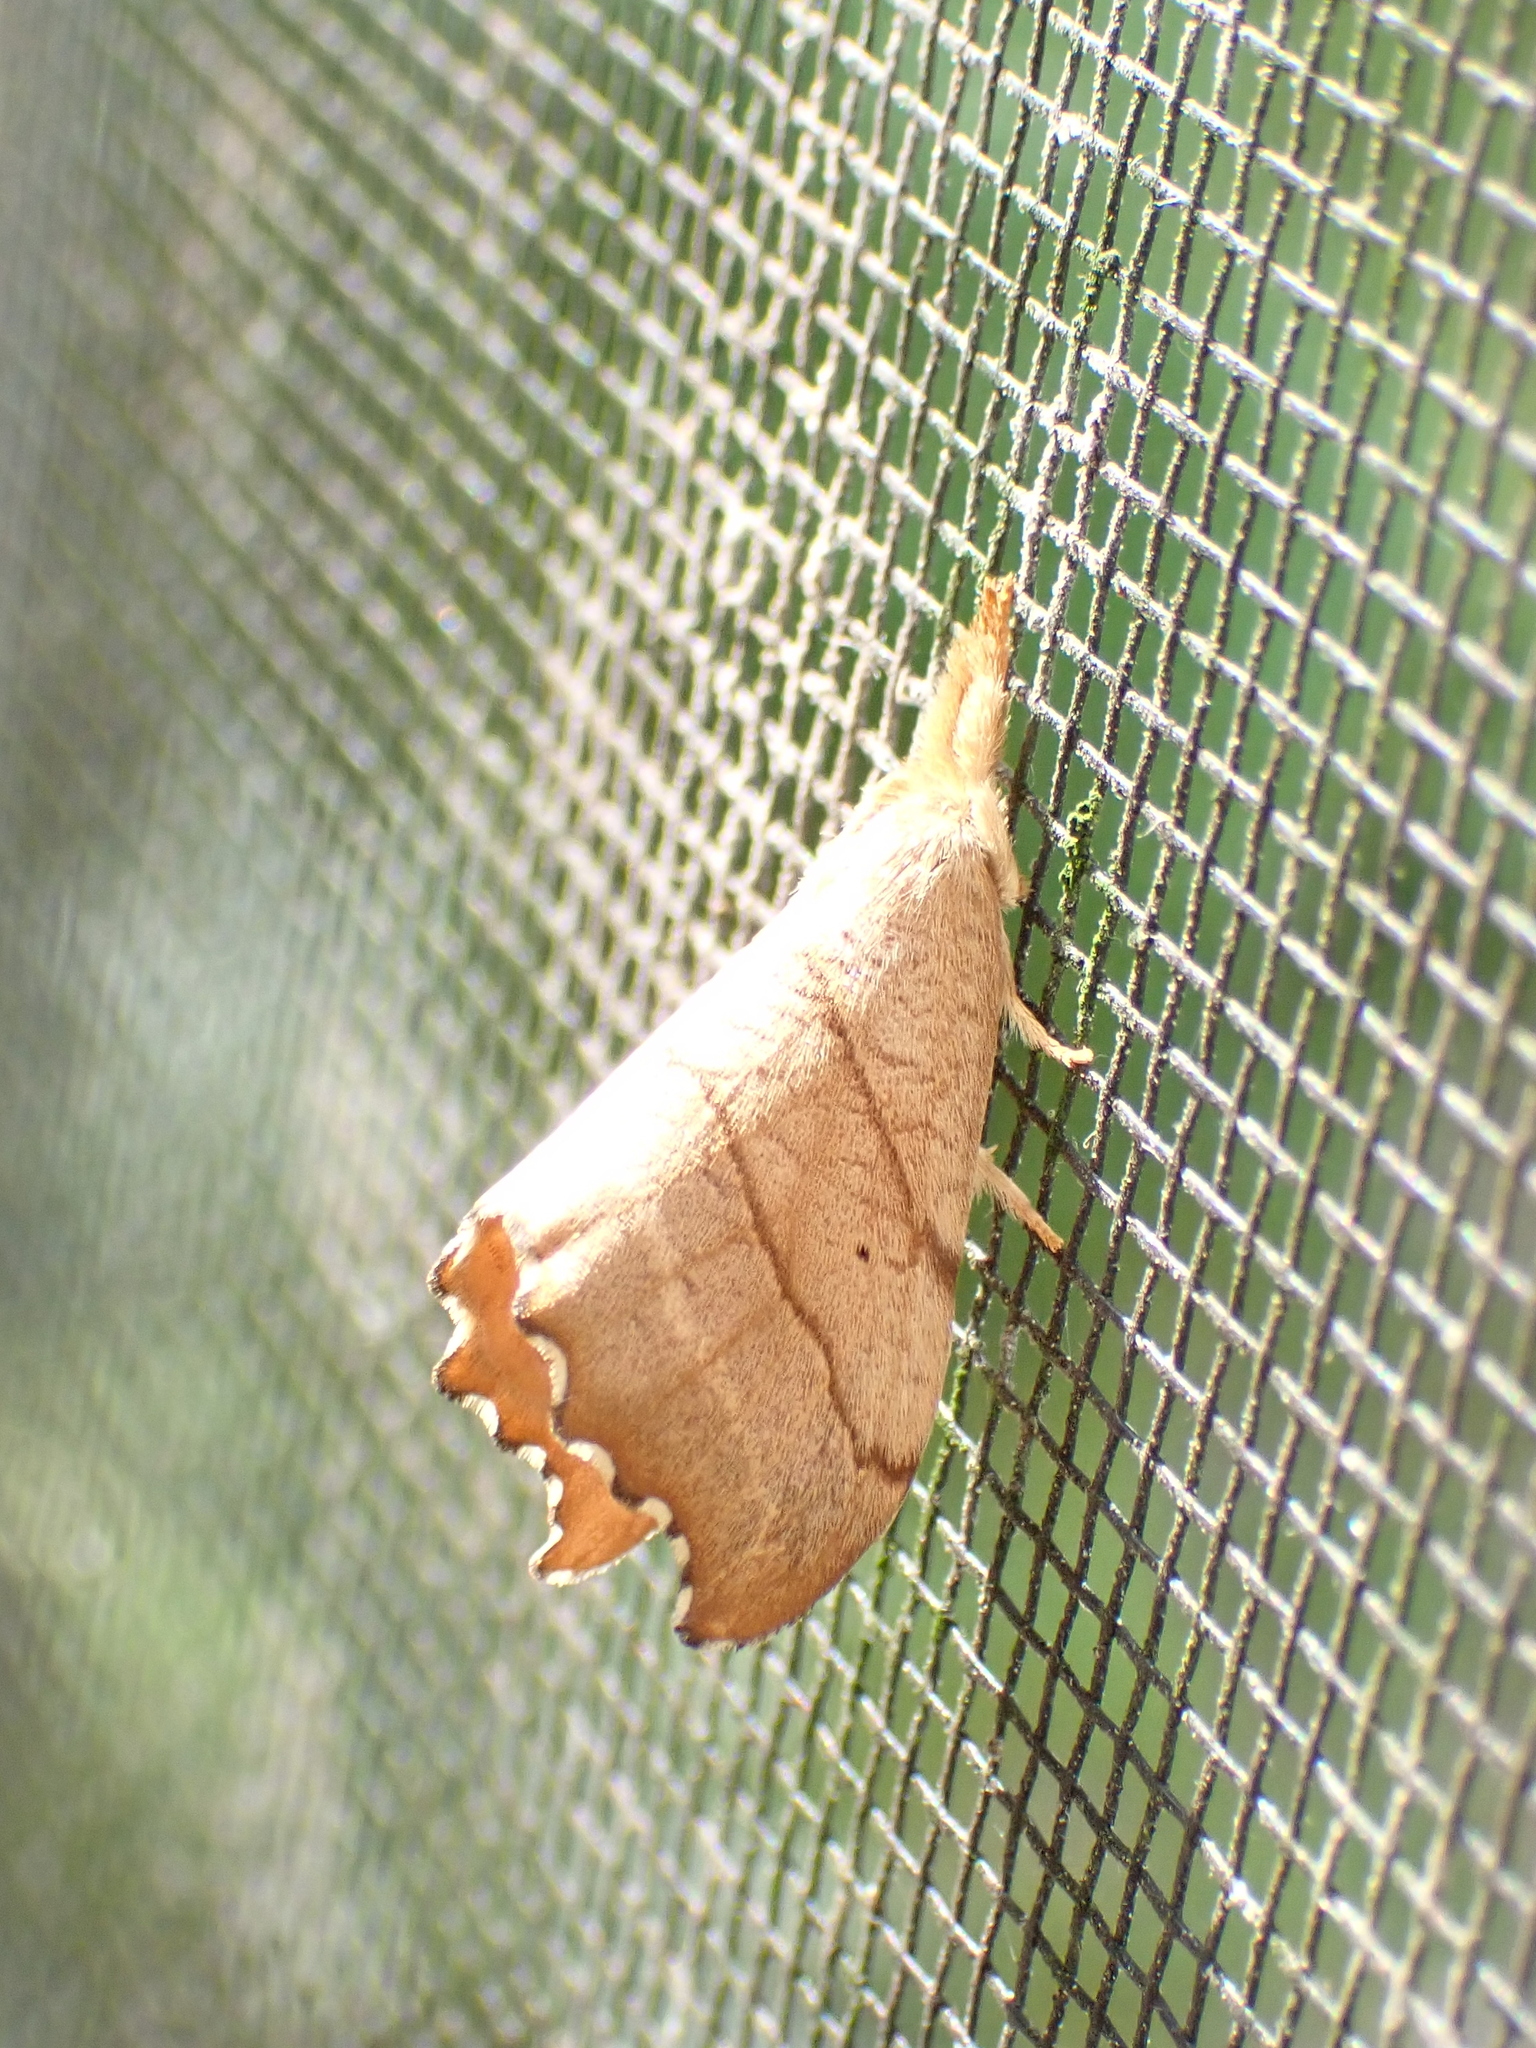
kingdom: Animalia
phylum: Arthropoda
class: Insecta
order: Lepidoptera
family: Drepanidae
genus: Falcaria
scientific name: Falcaria bilineata
